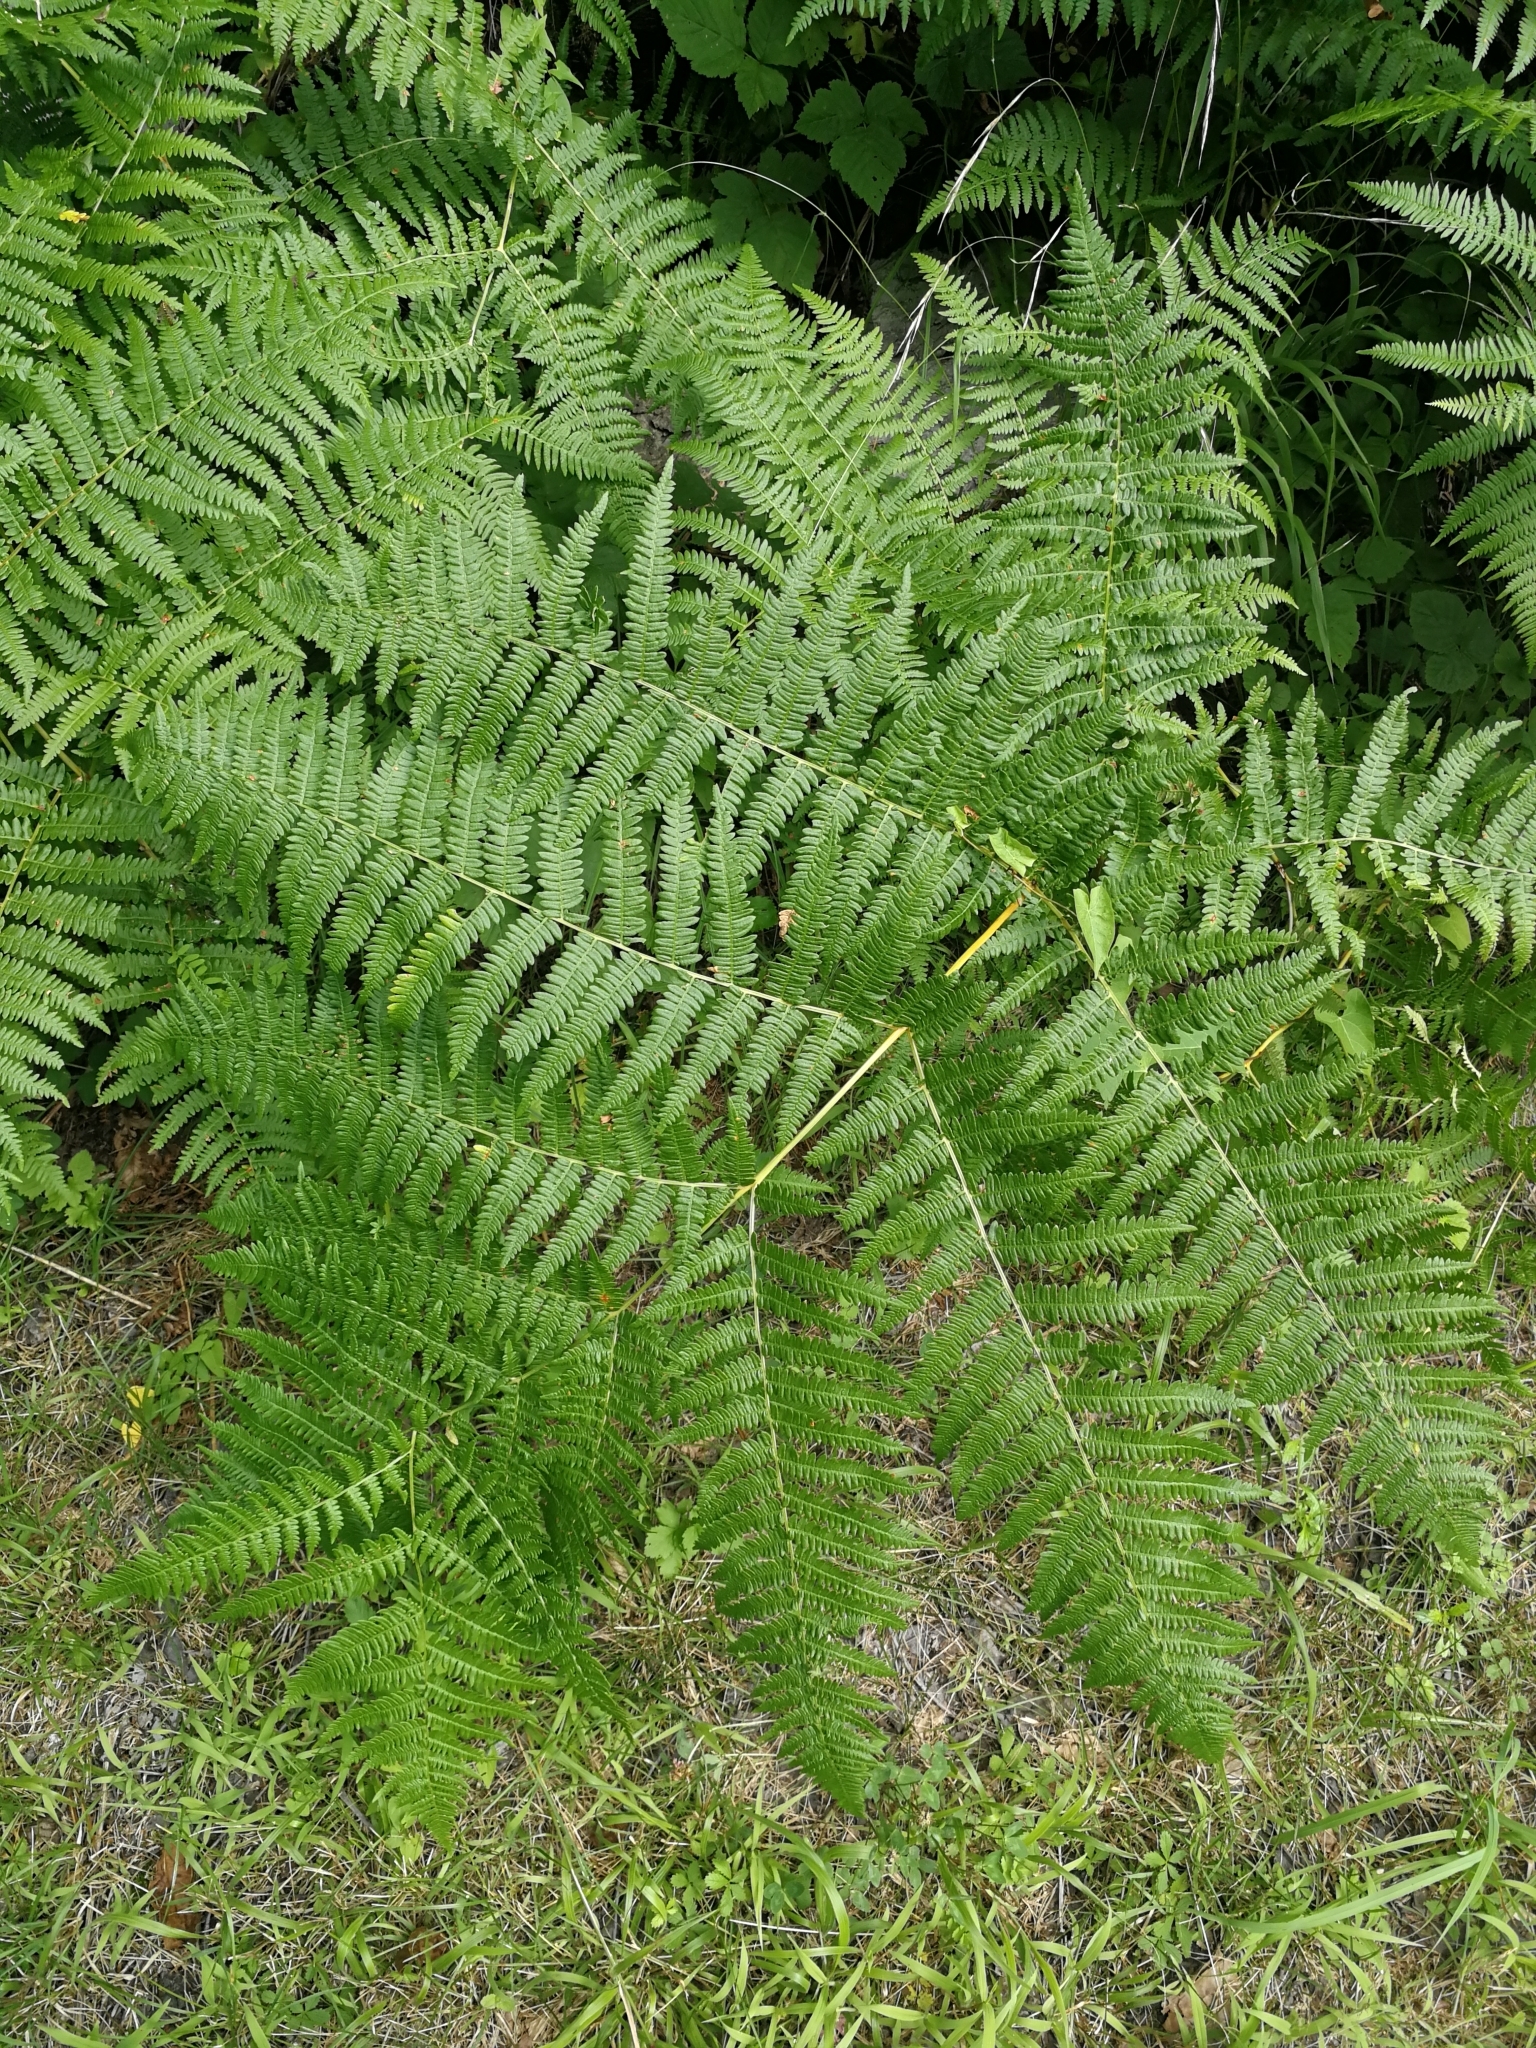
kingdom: Plantae
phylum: Tracheophyta
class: Polypodiopsida
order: Polypodiales
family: Dennstaedtiaceae
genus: Pteridium
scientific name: Pteridium aquilinum
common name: Bracken
